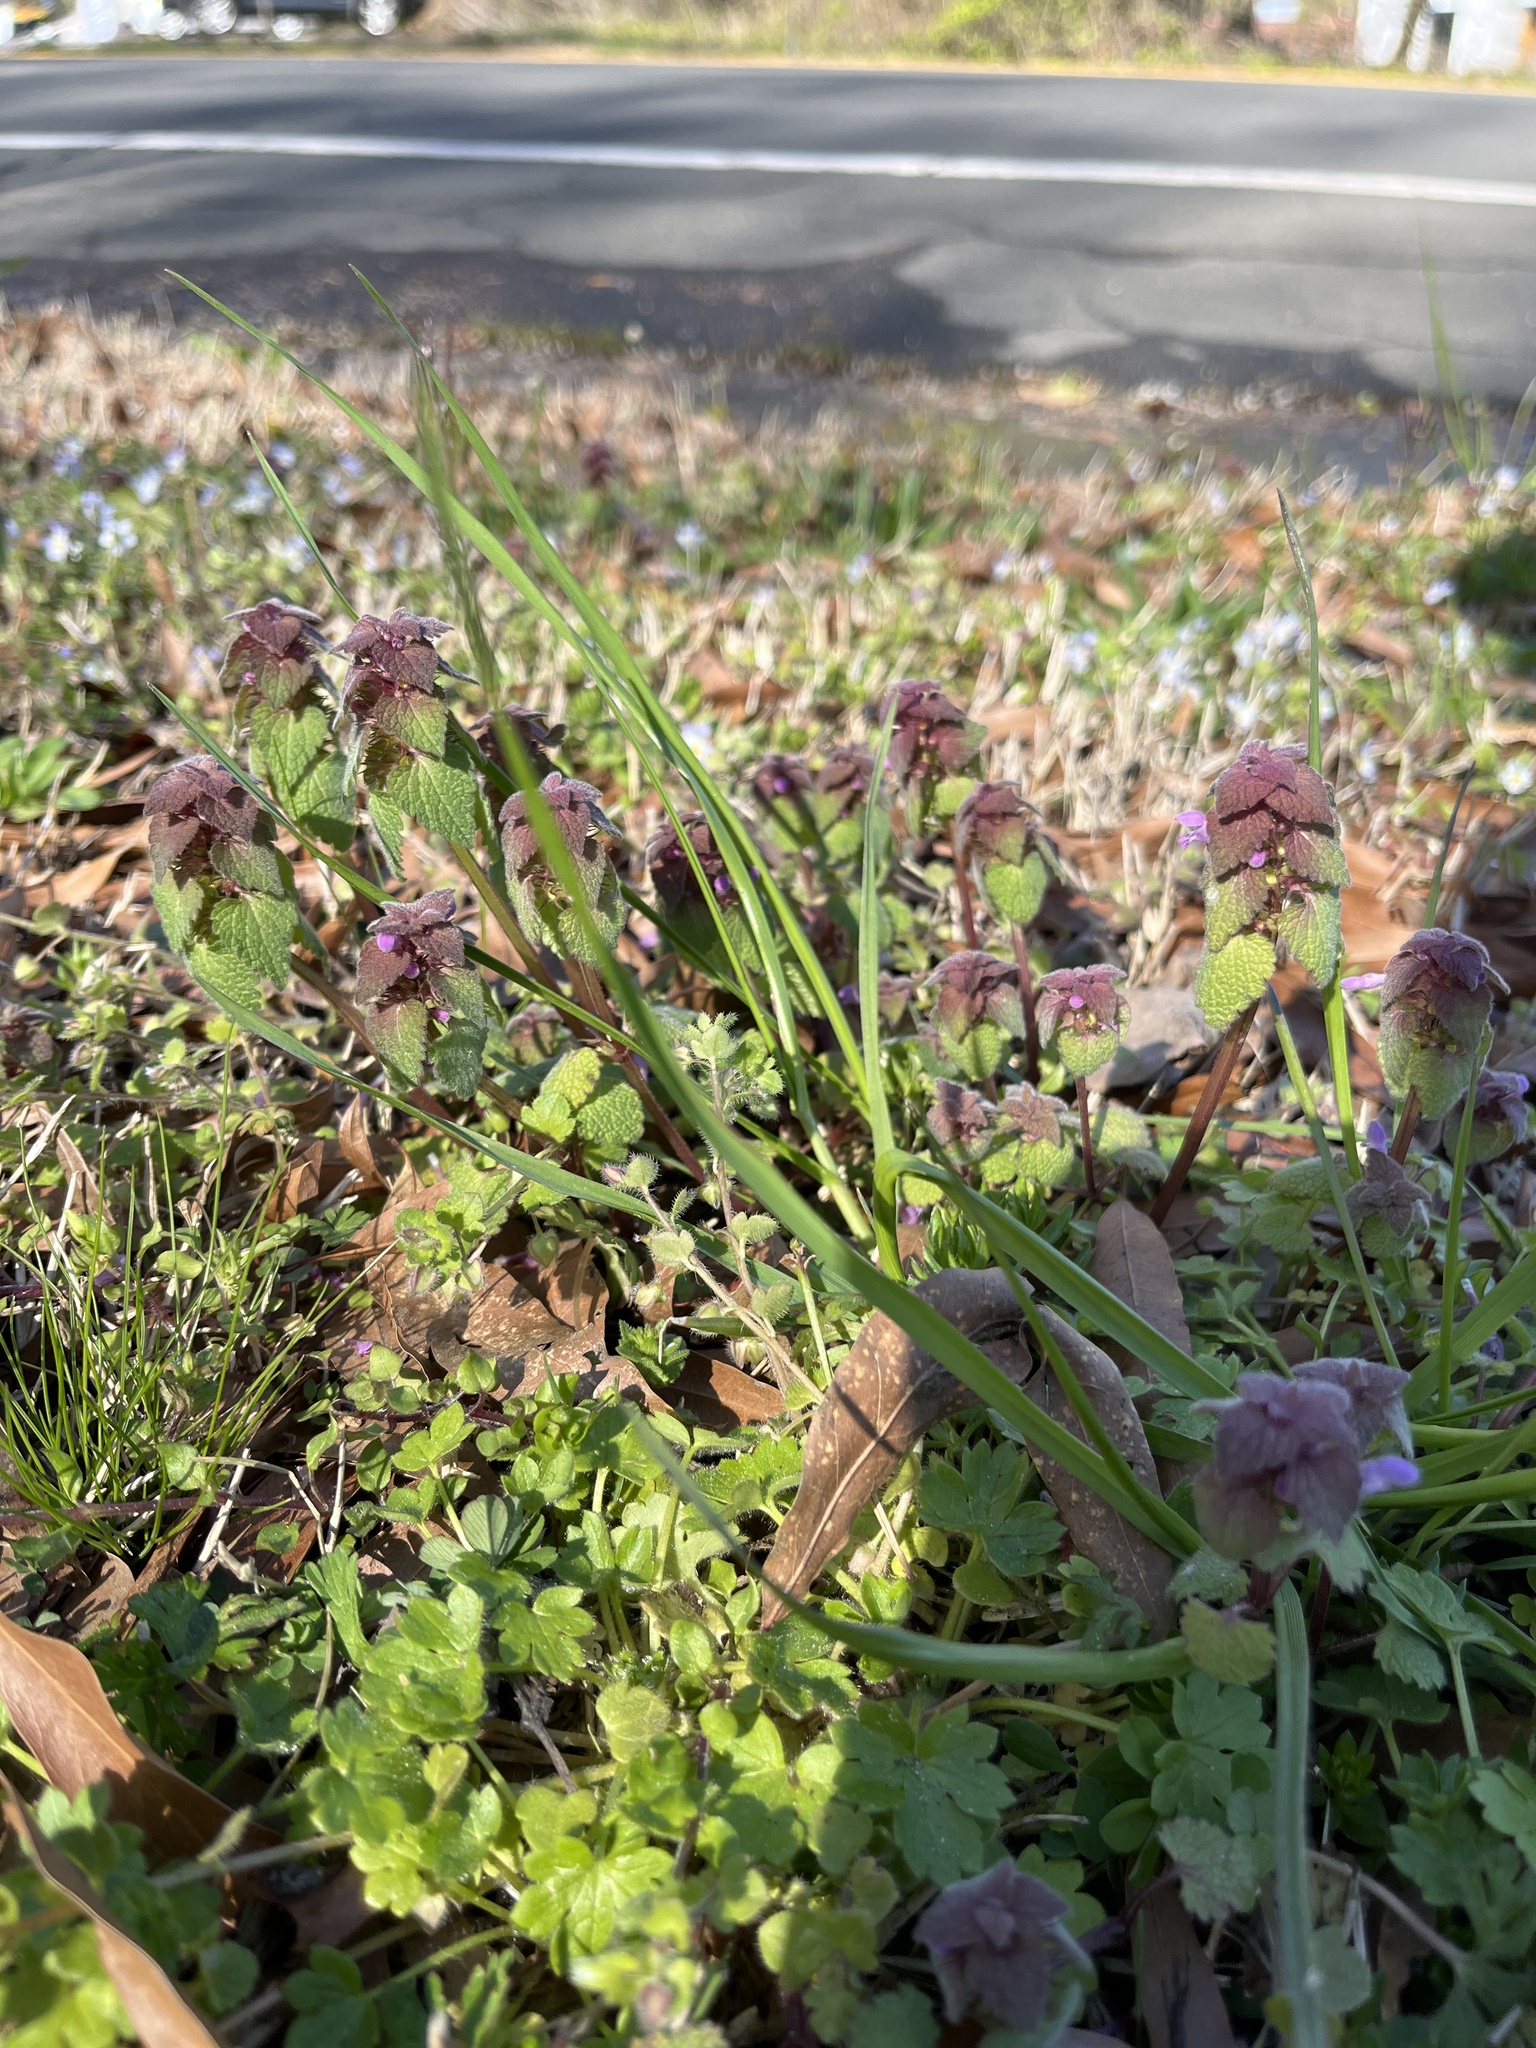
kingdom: Plantae
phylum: Tracheophyta
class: Magnoliopsida
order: Lamiales
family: Lamiaceae
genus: Lamium
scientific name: Lamium purpureum
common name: Red dead-nettle
